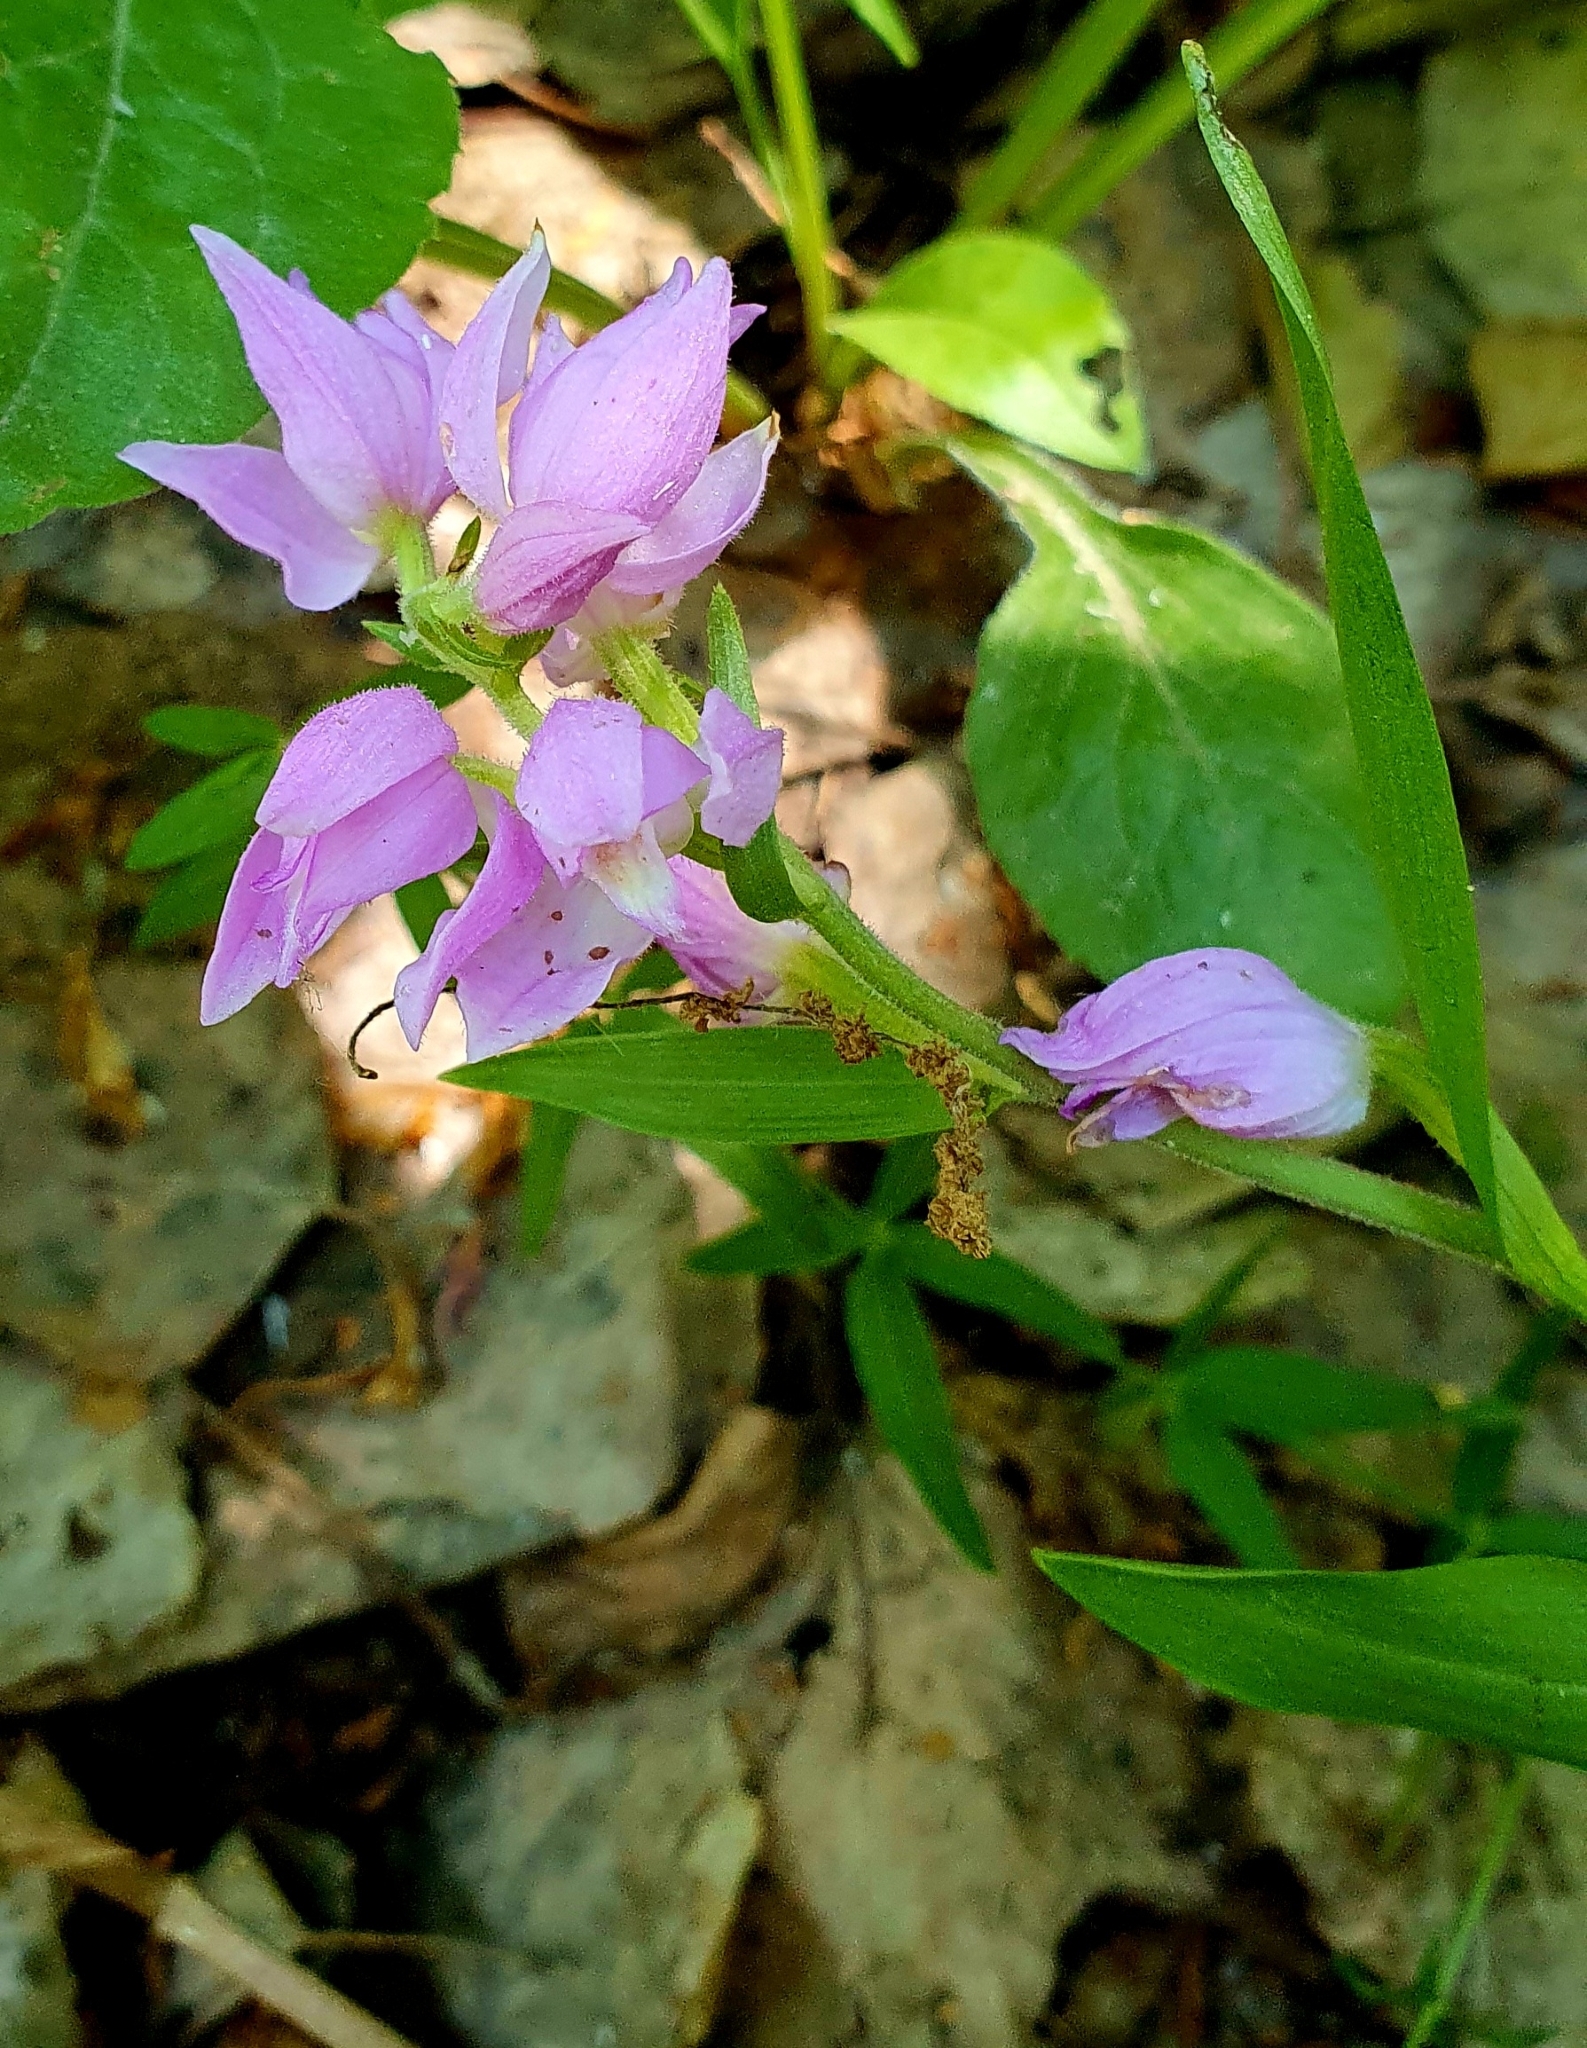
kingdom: Plantae
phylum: Tracheophyta
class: Liliopsida
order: Asparagales
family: Orchidaceae
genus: Cephalanthera
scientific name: Cephalanthera rubra
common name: Red helleborine
